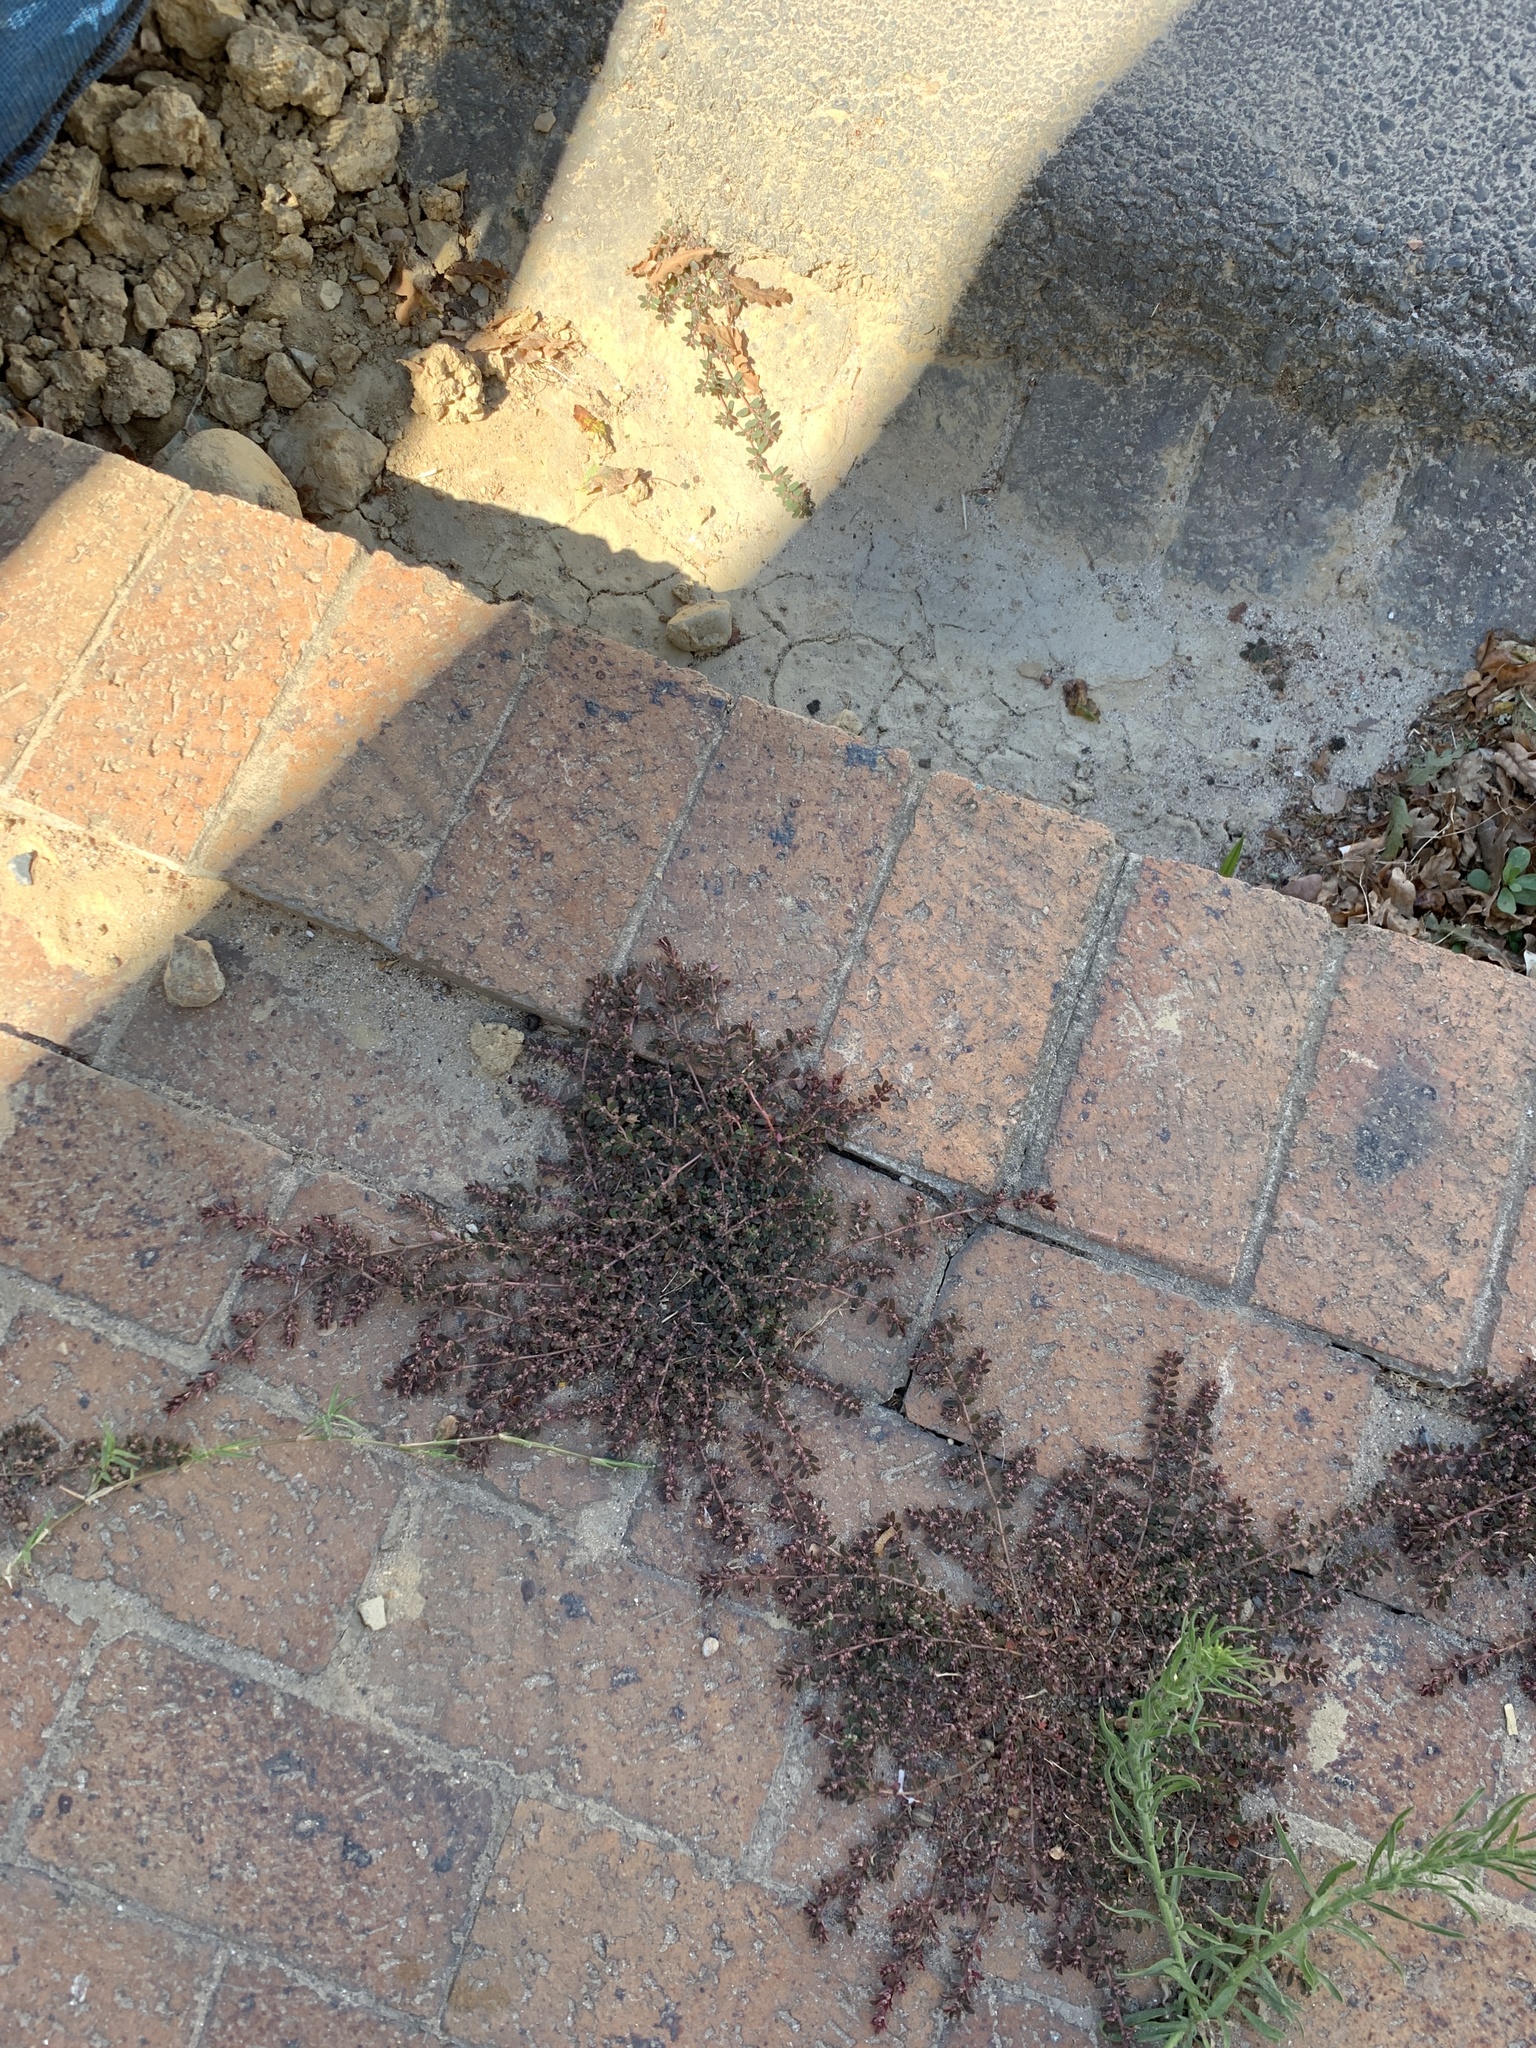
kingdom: Plantae
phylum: Tracheophyta
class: Magnoliopsida
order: Malpighiales
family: Euphorbiaceae
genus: Euphorbia
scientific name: Euphorbia maculata
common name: Spotted spurge
